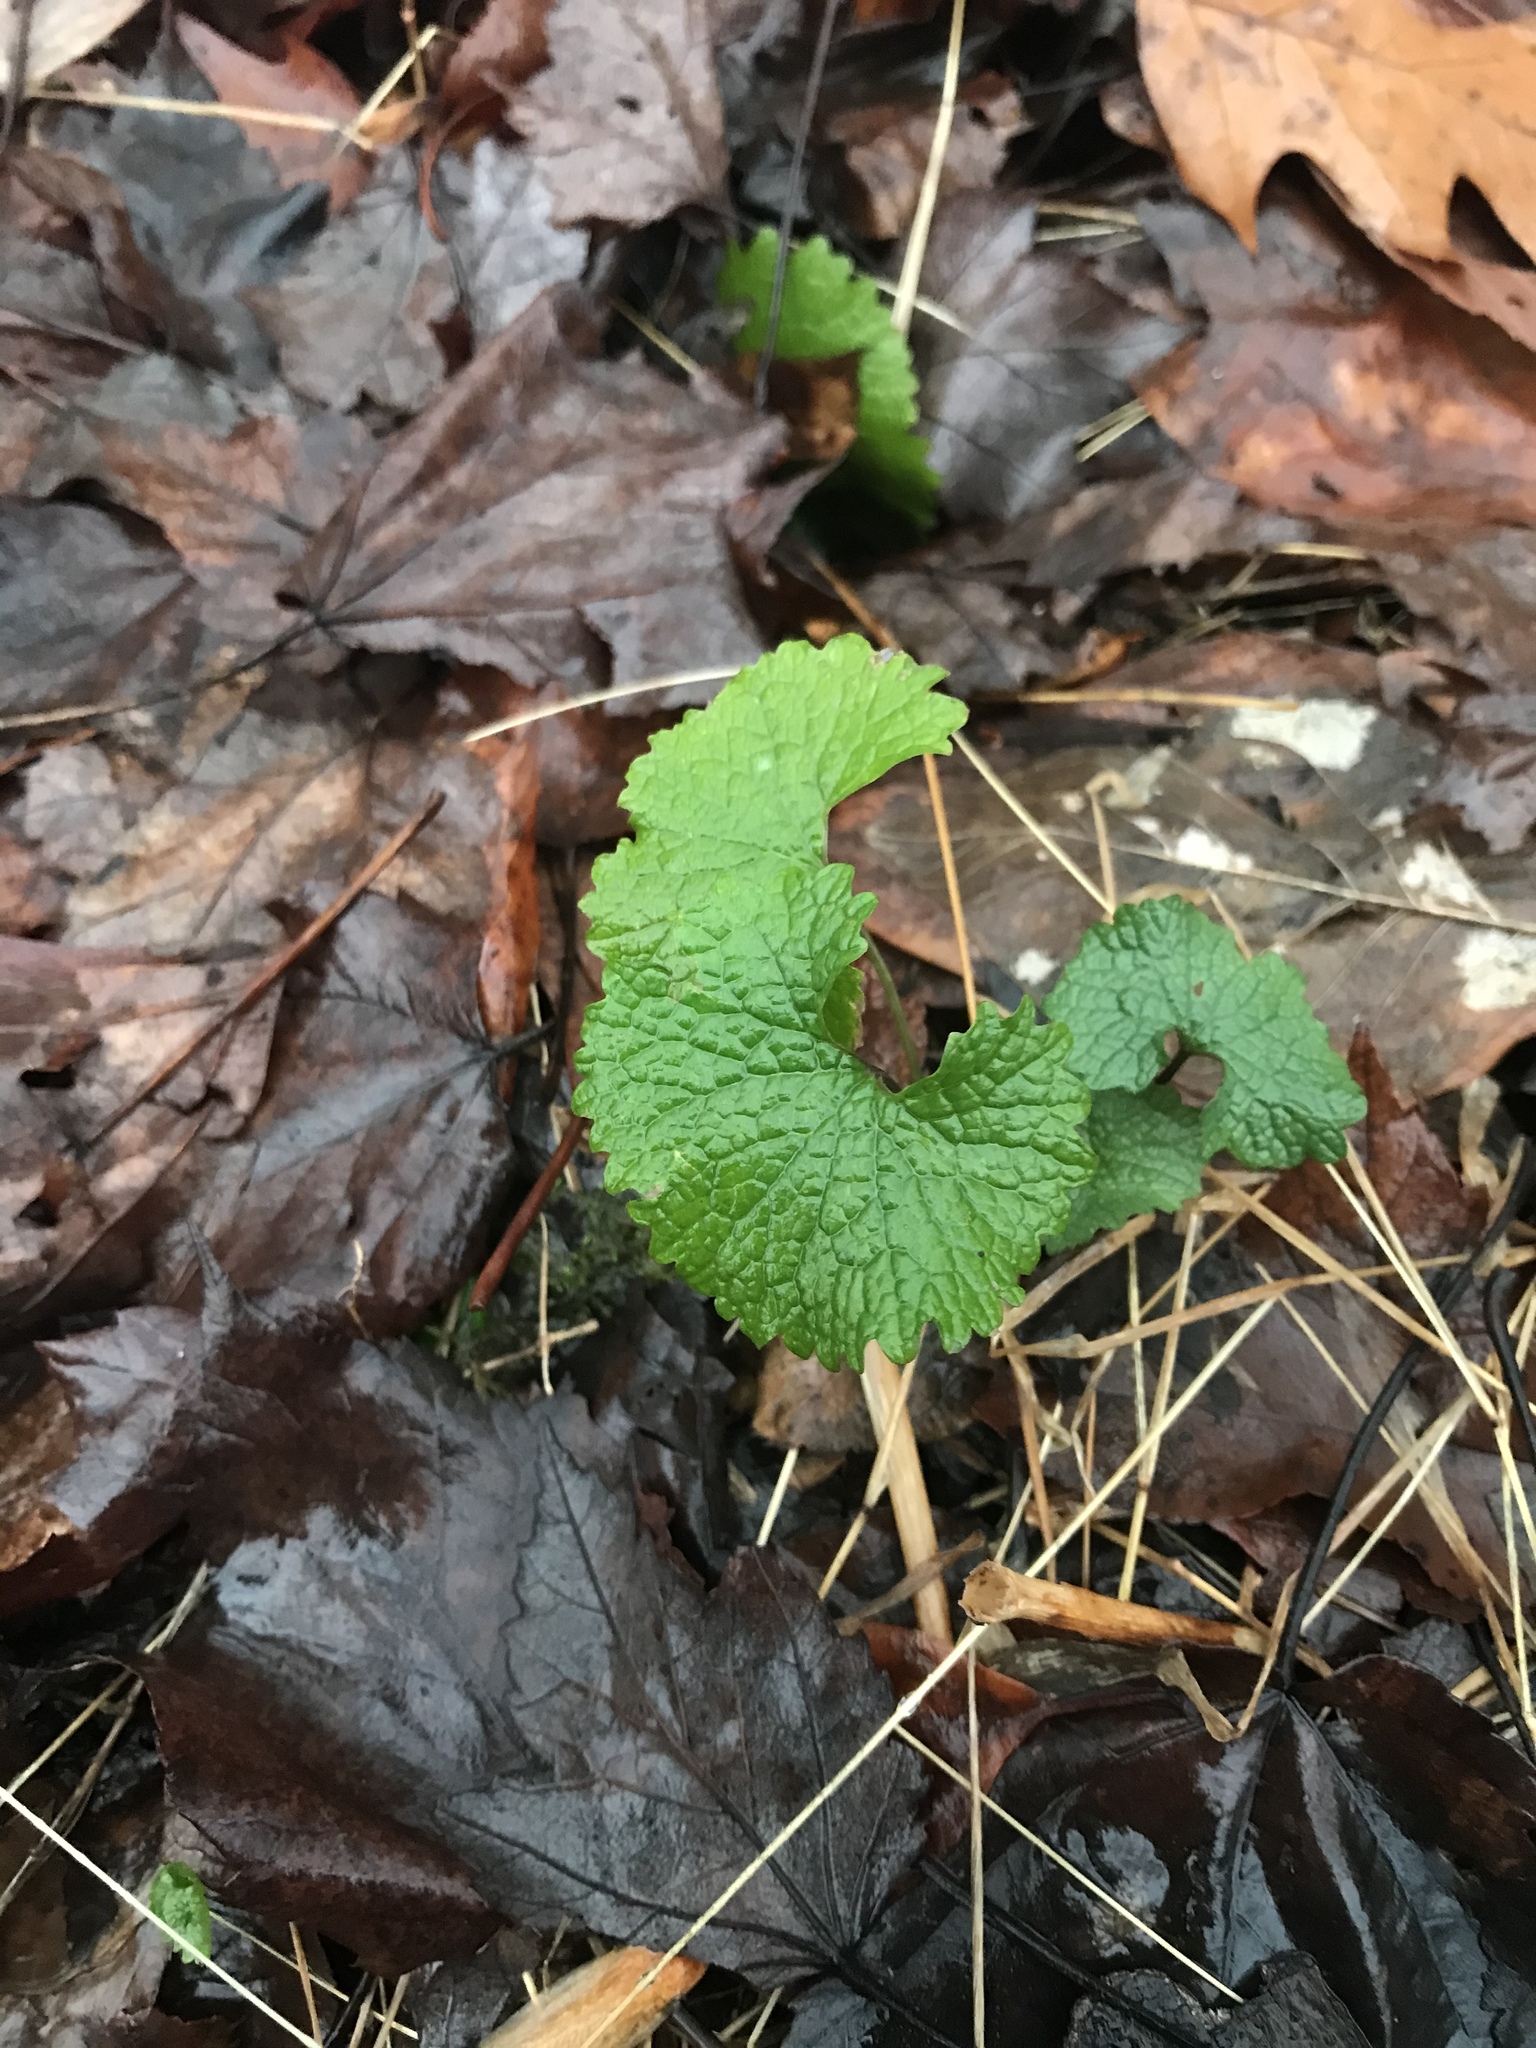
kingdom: Plantae
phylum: Tracheophyta
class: Magnoliopsida
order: Brassicales
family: Brassicaceae
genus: Alliaria
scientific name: Alliaria petiolata
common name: Garlic mustard
